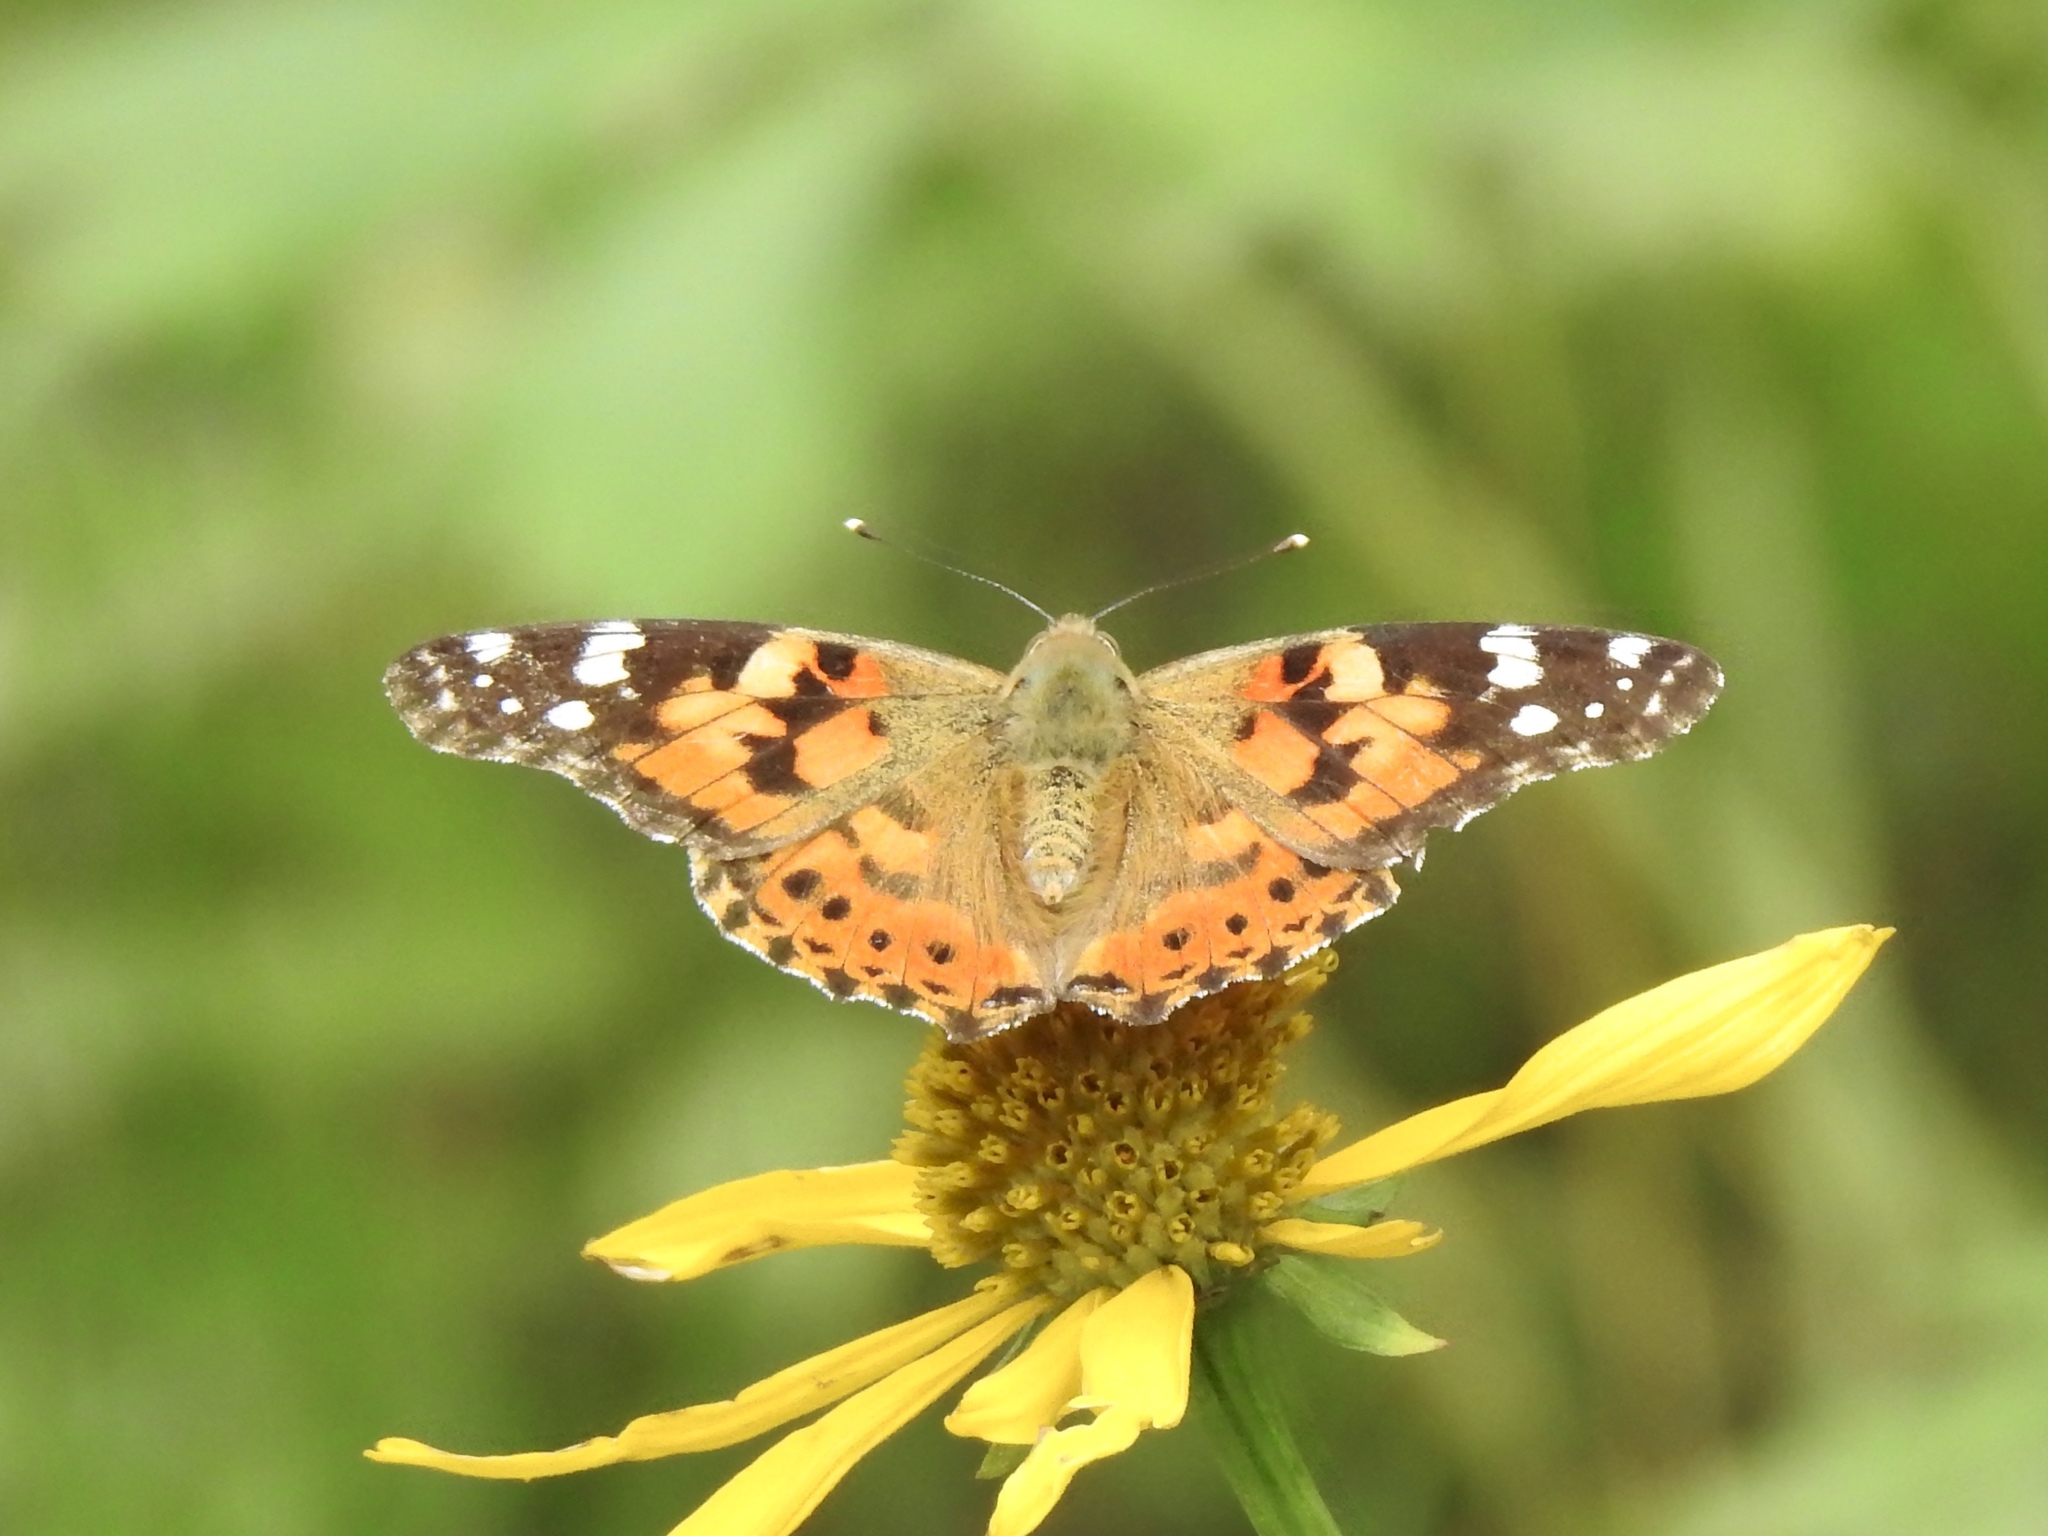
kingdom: Animalia
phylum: Arthropoda
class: Insecta
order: Lepidoptera
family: Nymphalidae
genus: Vanessa
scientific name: Vanessa cardui
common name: Painted lady
